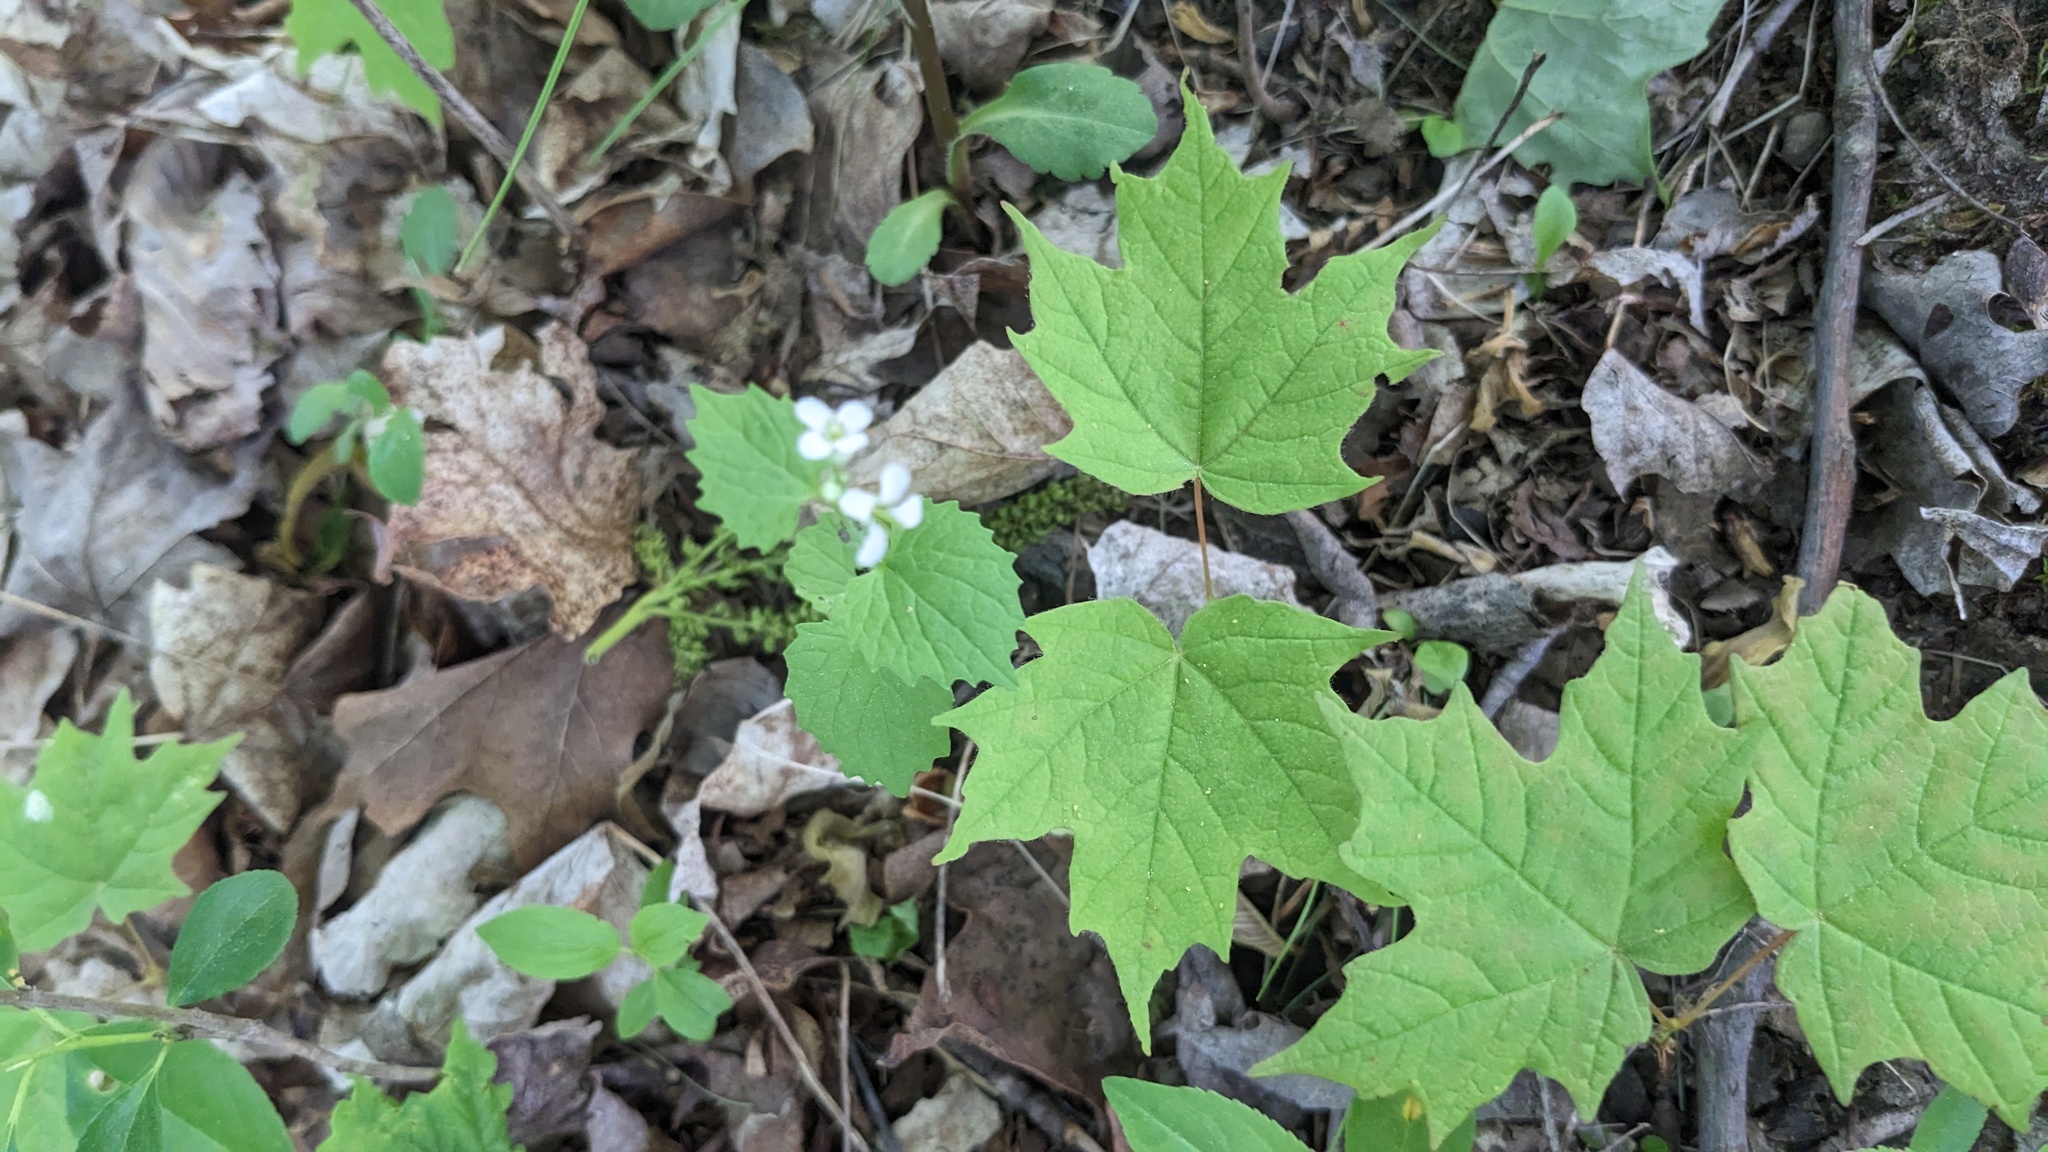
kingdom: Plantae
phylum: Tracheophyta
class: Magnoliopsida
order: Brassicales
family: Brassicaceae
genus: Alliaria
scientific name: Alliaria petiolata
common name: Garlic mustard
